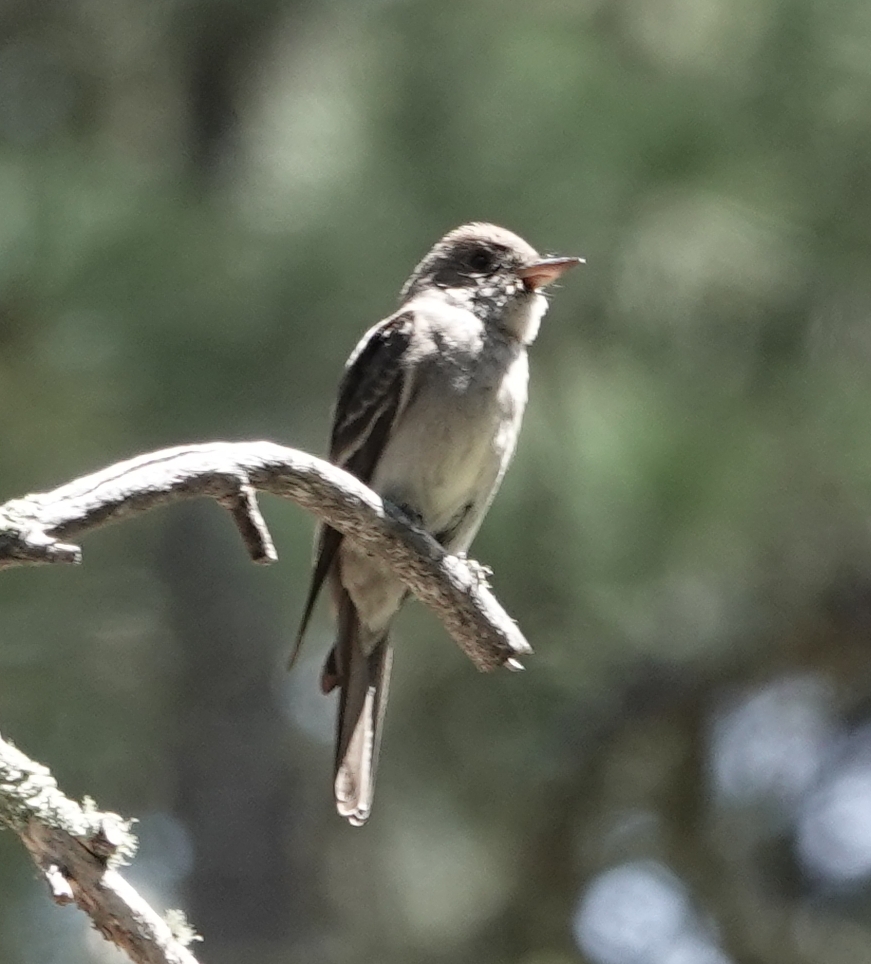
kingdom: Animalia
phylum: Chordata
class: Aves
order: Passeriformes
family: Tyrannidae
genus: Contopus
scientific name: Contopus sordidulus
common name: Western wood-pewee
